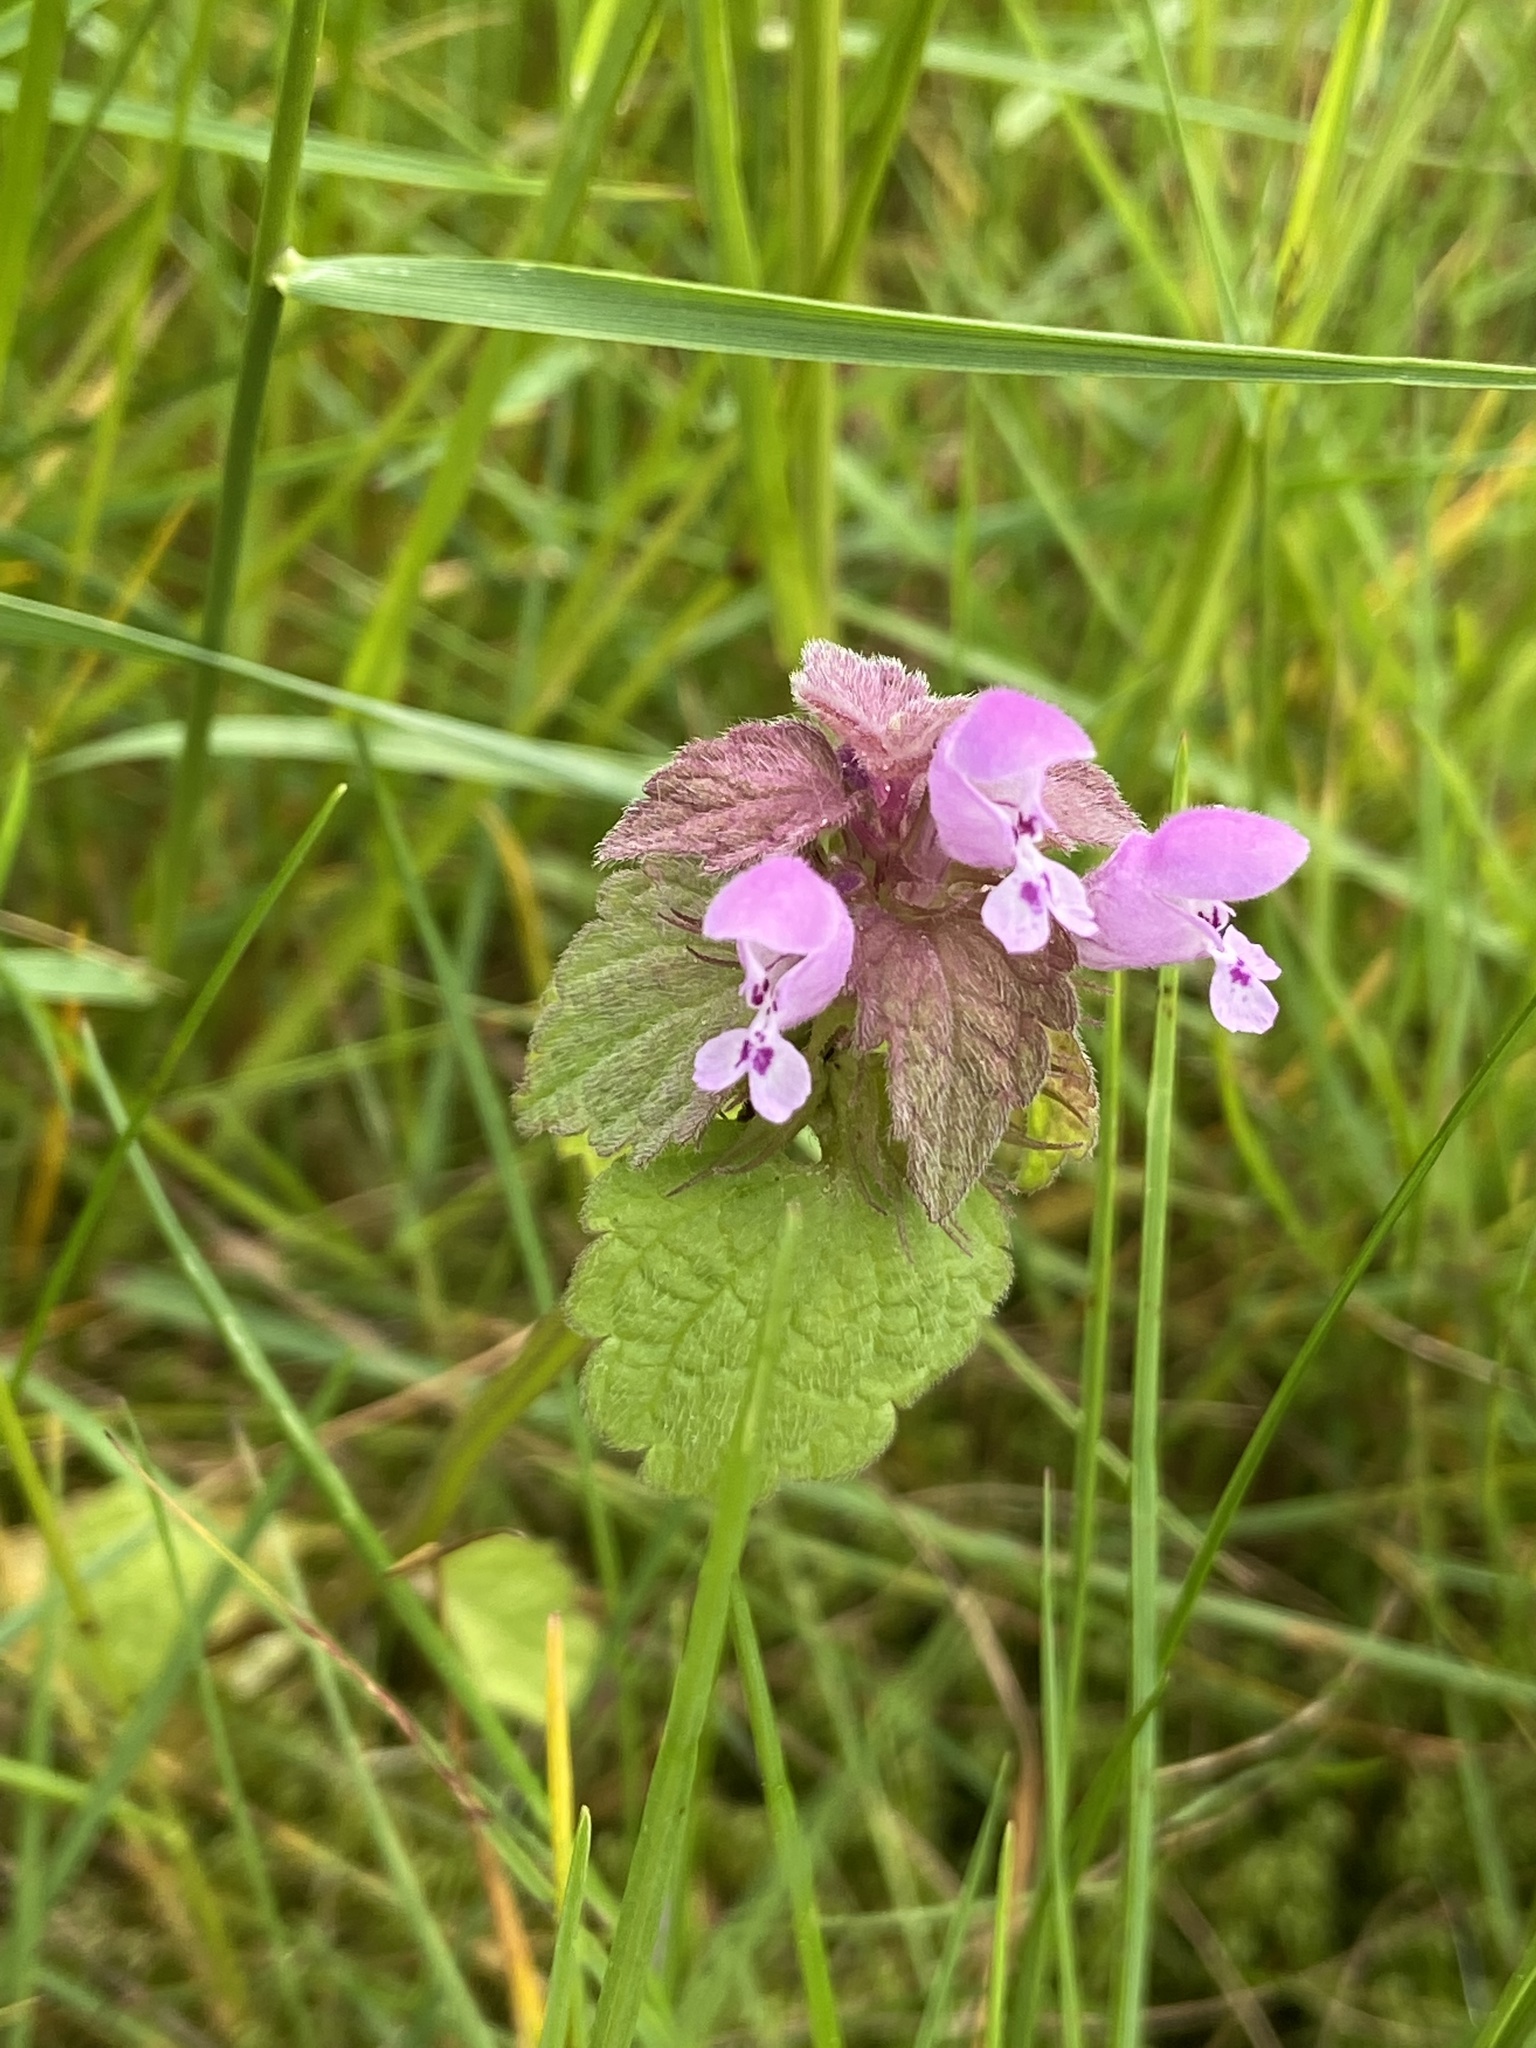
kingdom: Plantae
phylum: Tracheophyta
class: Magnoliopsida
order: Lamiales
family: Lamiaceae
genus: Lamium
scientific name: Lamium purpureum
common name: Red dead-nettle
